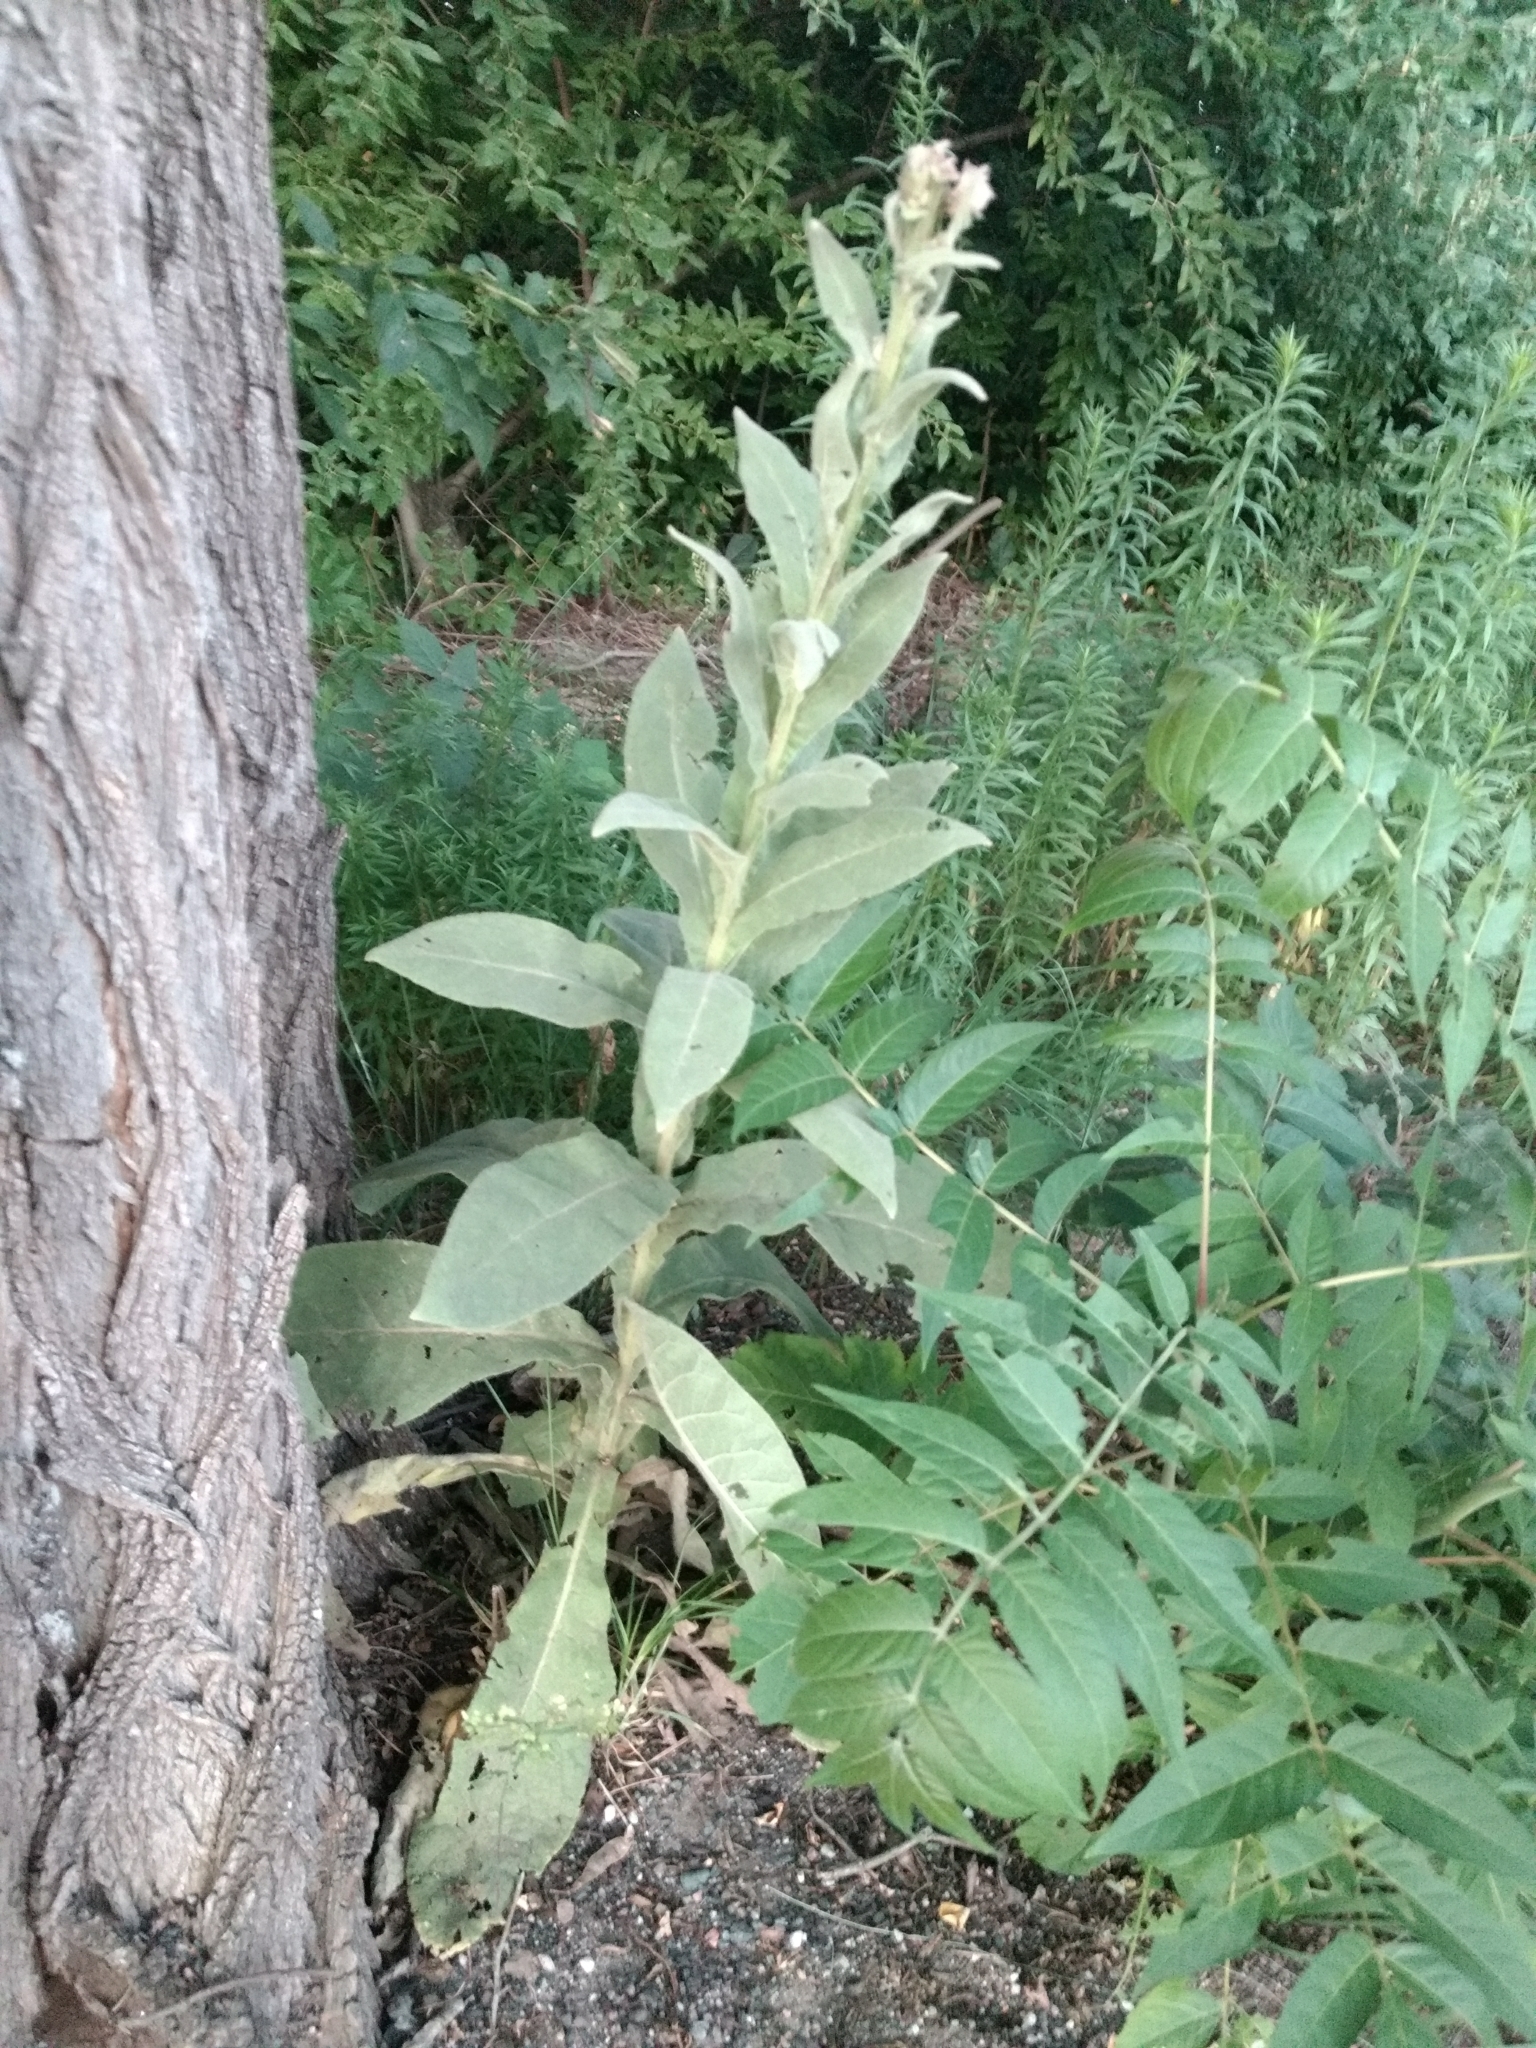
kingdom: Plantae
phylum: Tracheophyta
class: Magnoliopsida
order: Lamiales
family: Scrophulariaceae
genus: Verbascum
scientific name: Verbascum thapsus
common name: Common mullein
